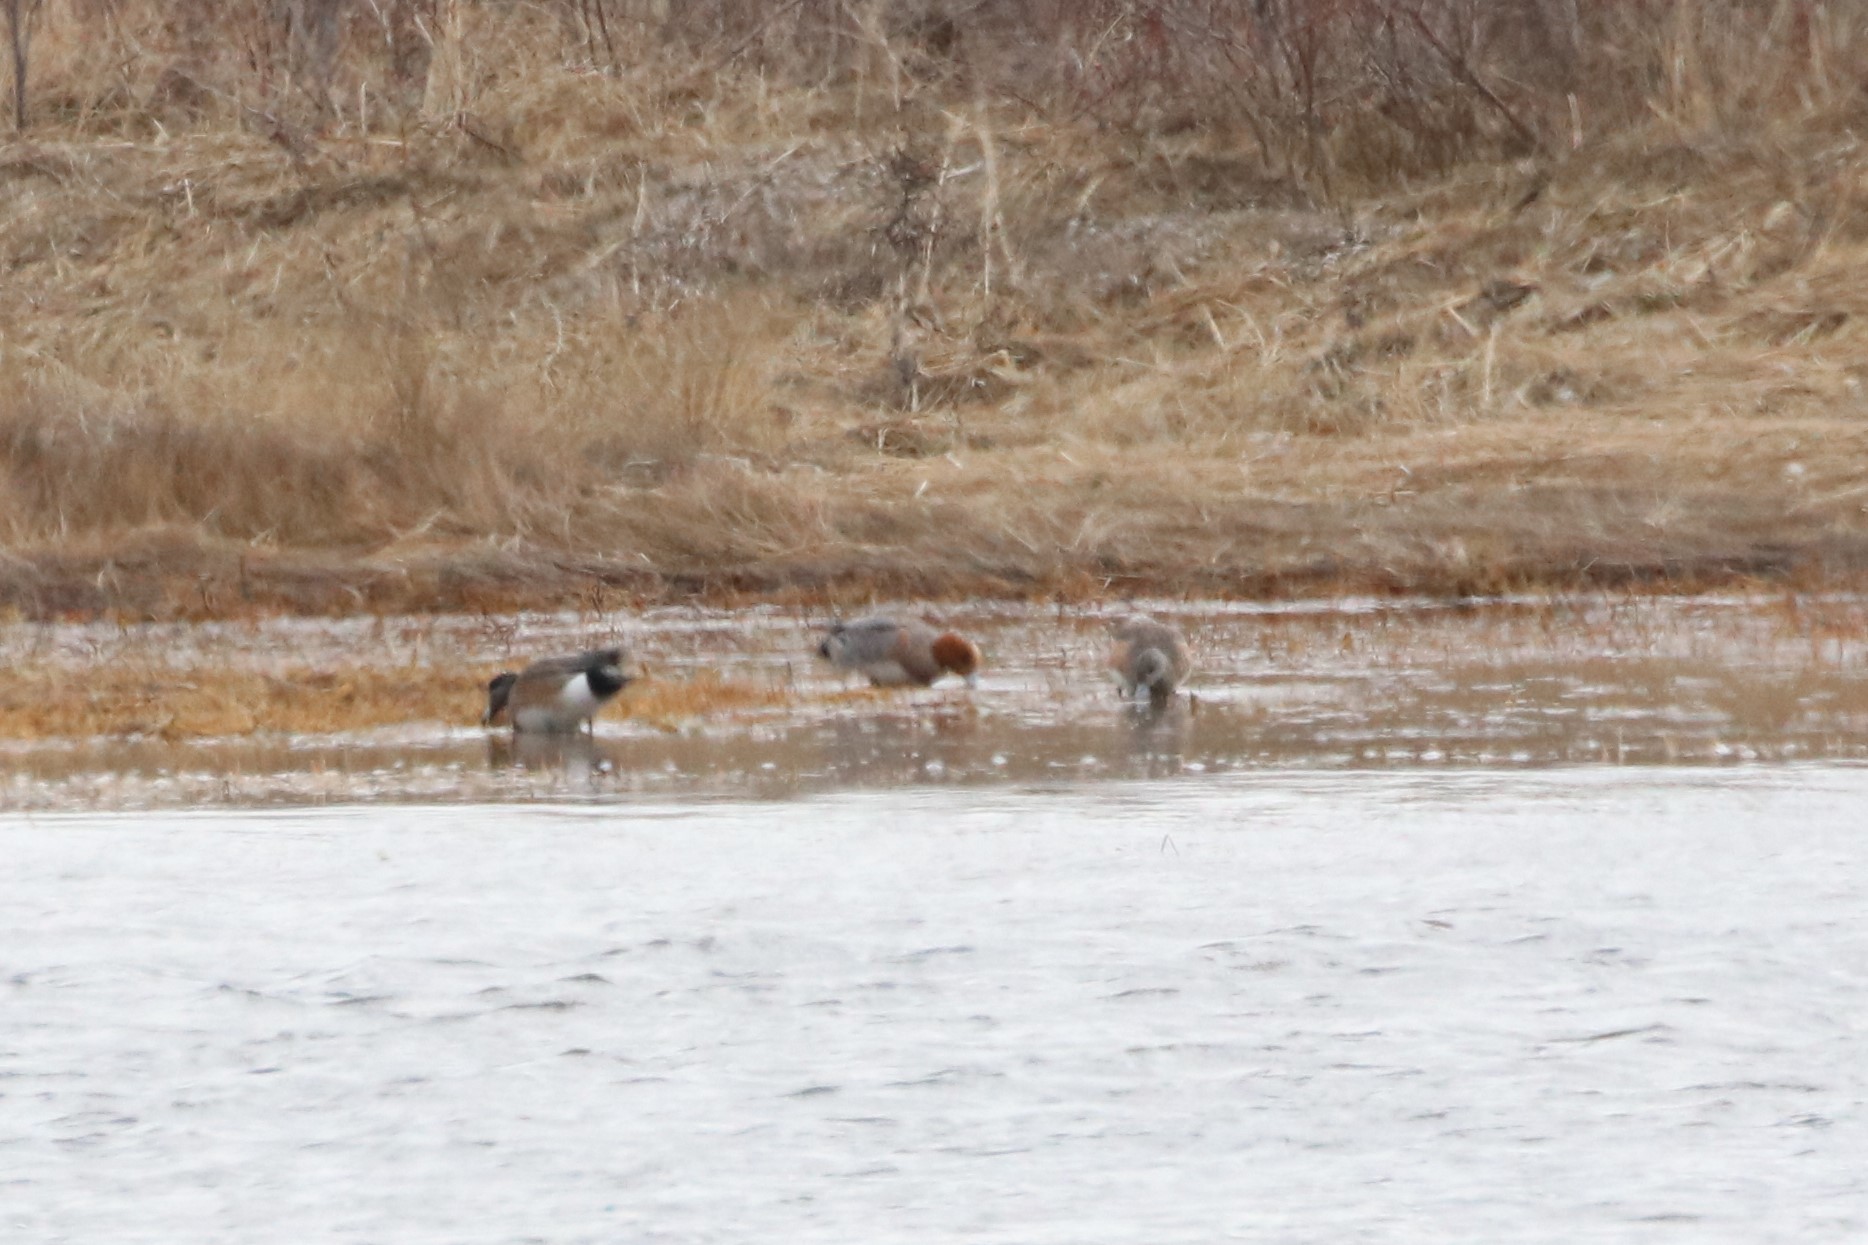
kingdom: Animalia
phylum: Chordata
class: Aves
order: Anseriformes
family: Anatidae
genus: Mareca
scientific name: Mareca penelope
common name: Eurasian wigeon
